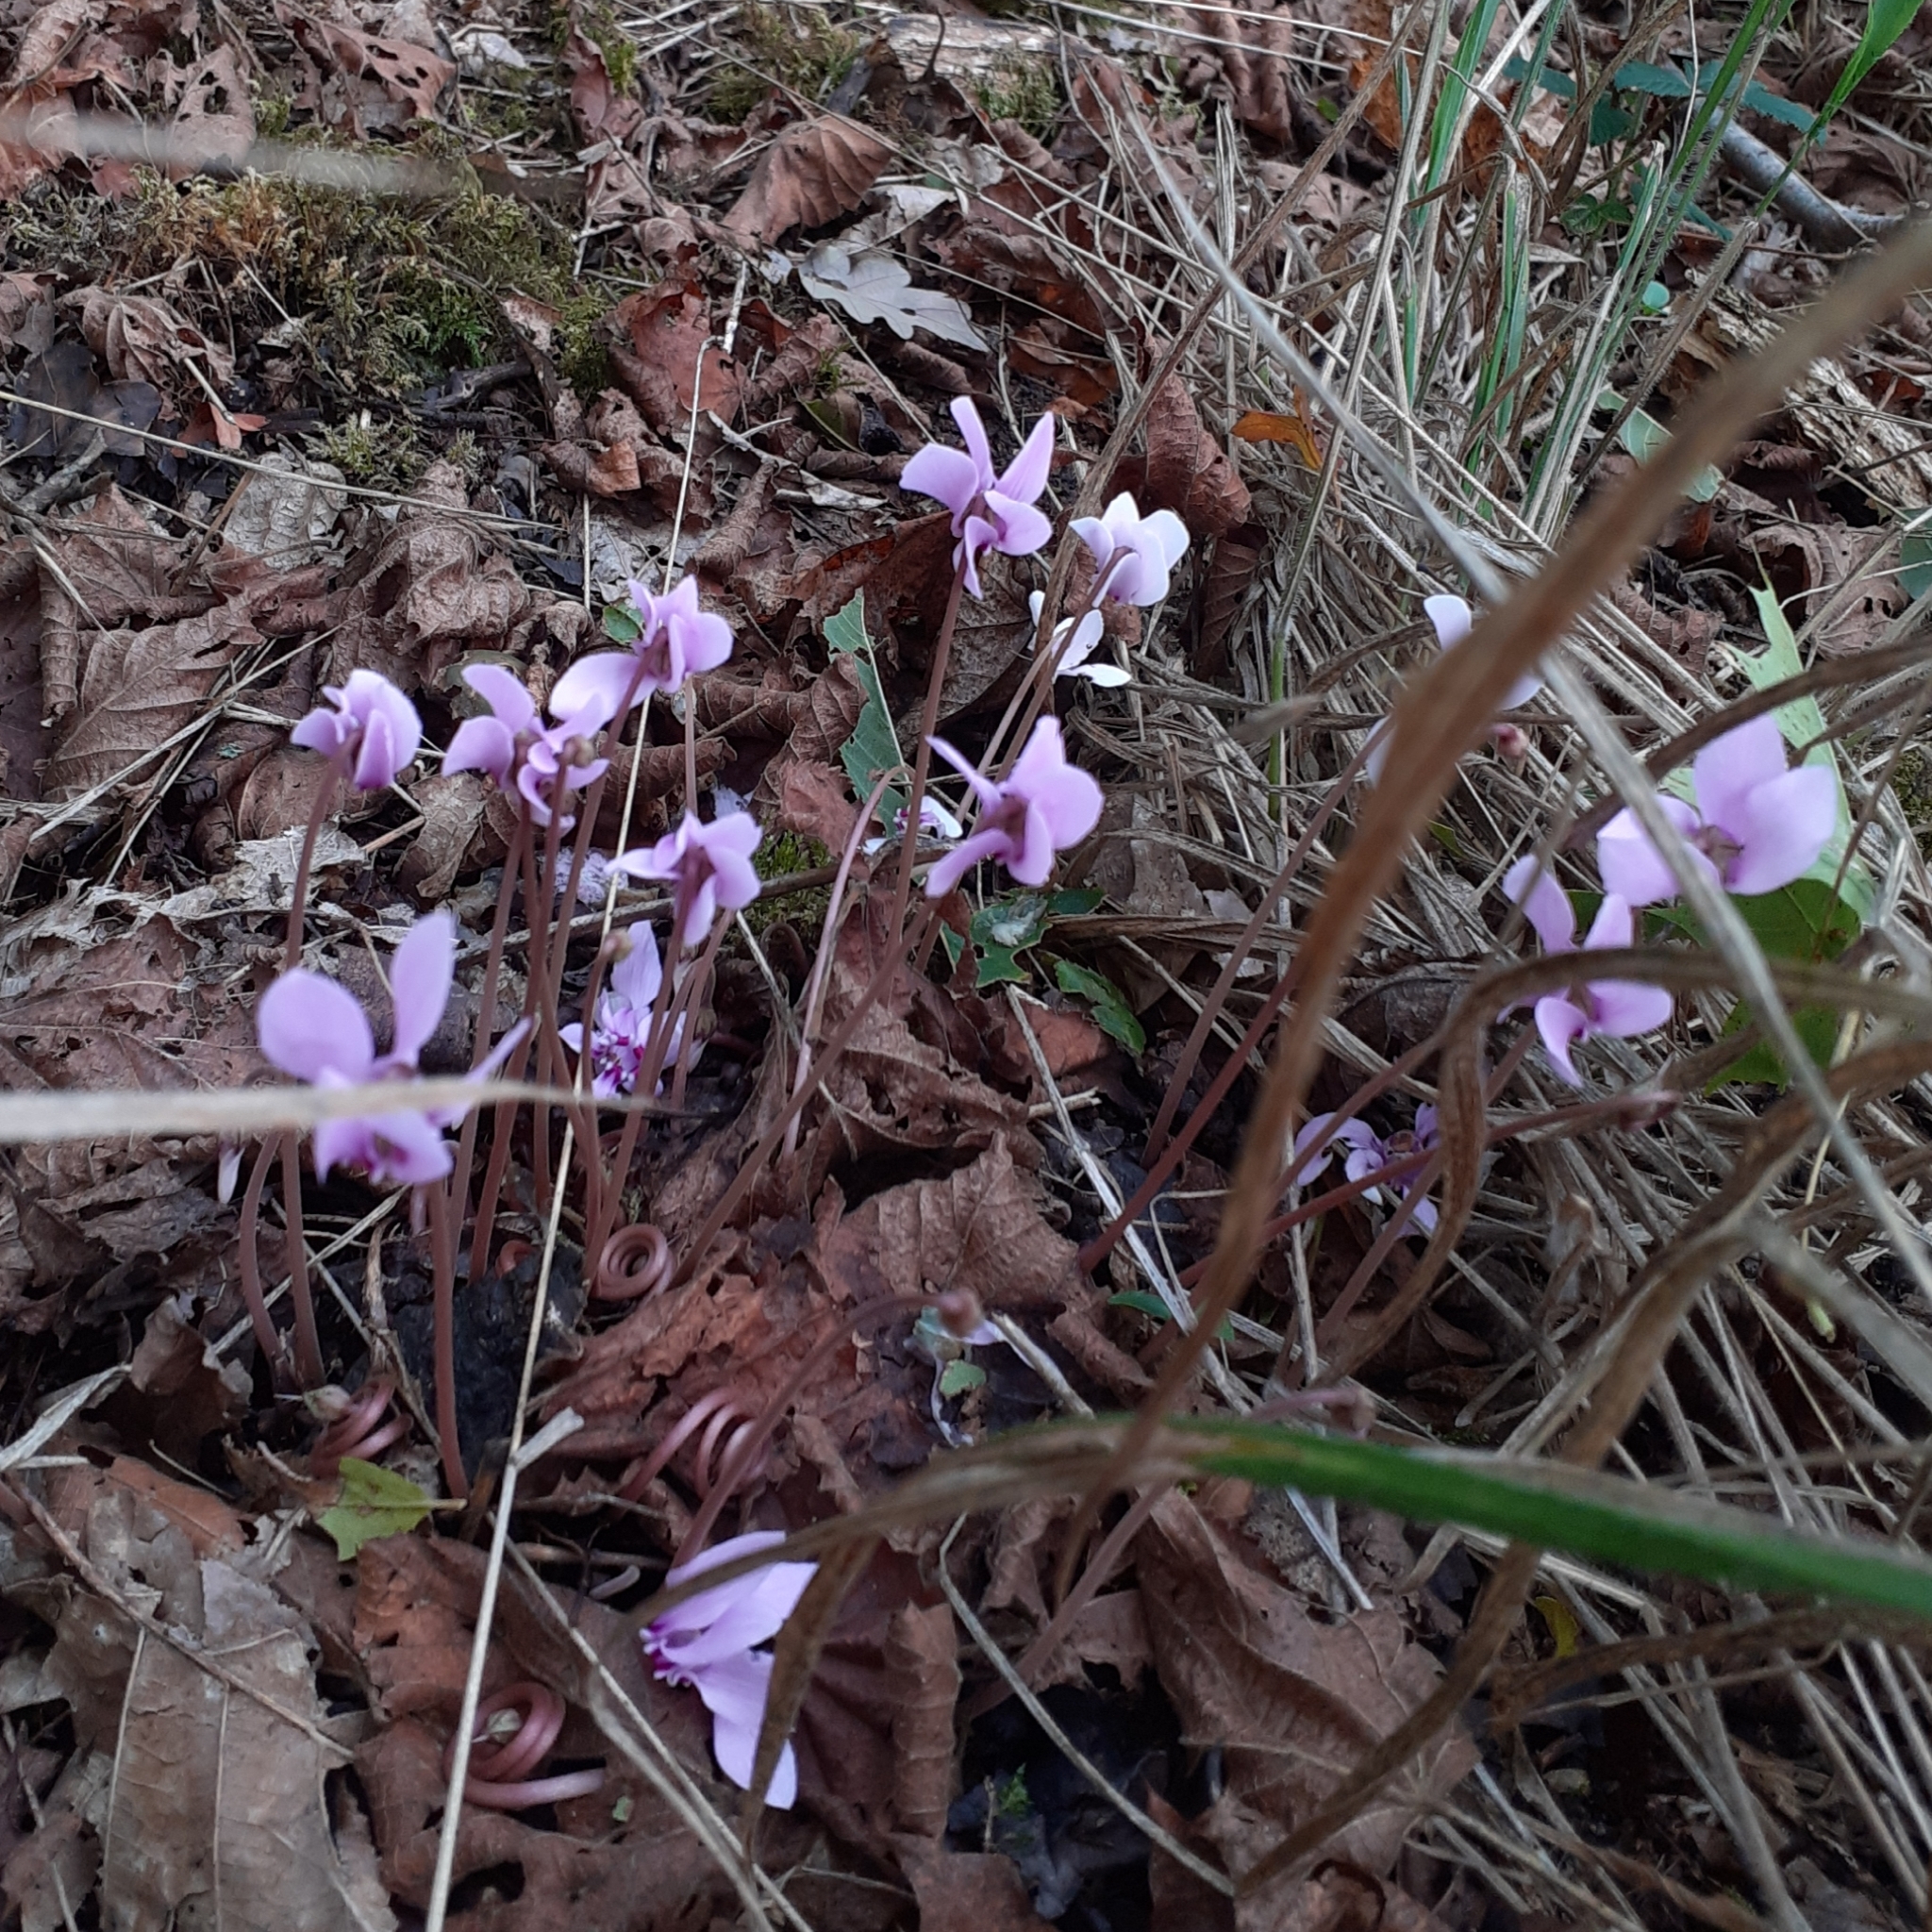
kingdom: Plantae
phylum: Tracheophyta
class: Magnoliopsida
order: Ericales
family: Primulaceae
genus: Cyclamen
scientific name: Cyclamen hederifolium
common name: Sowbread
